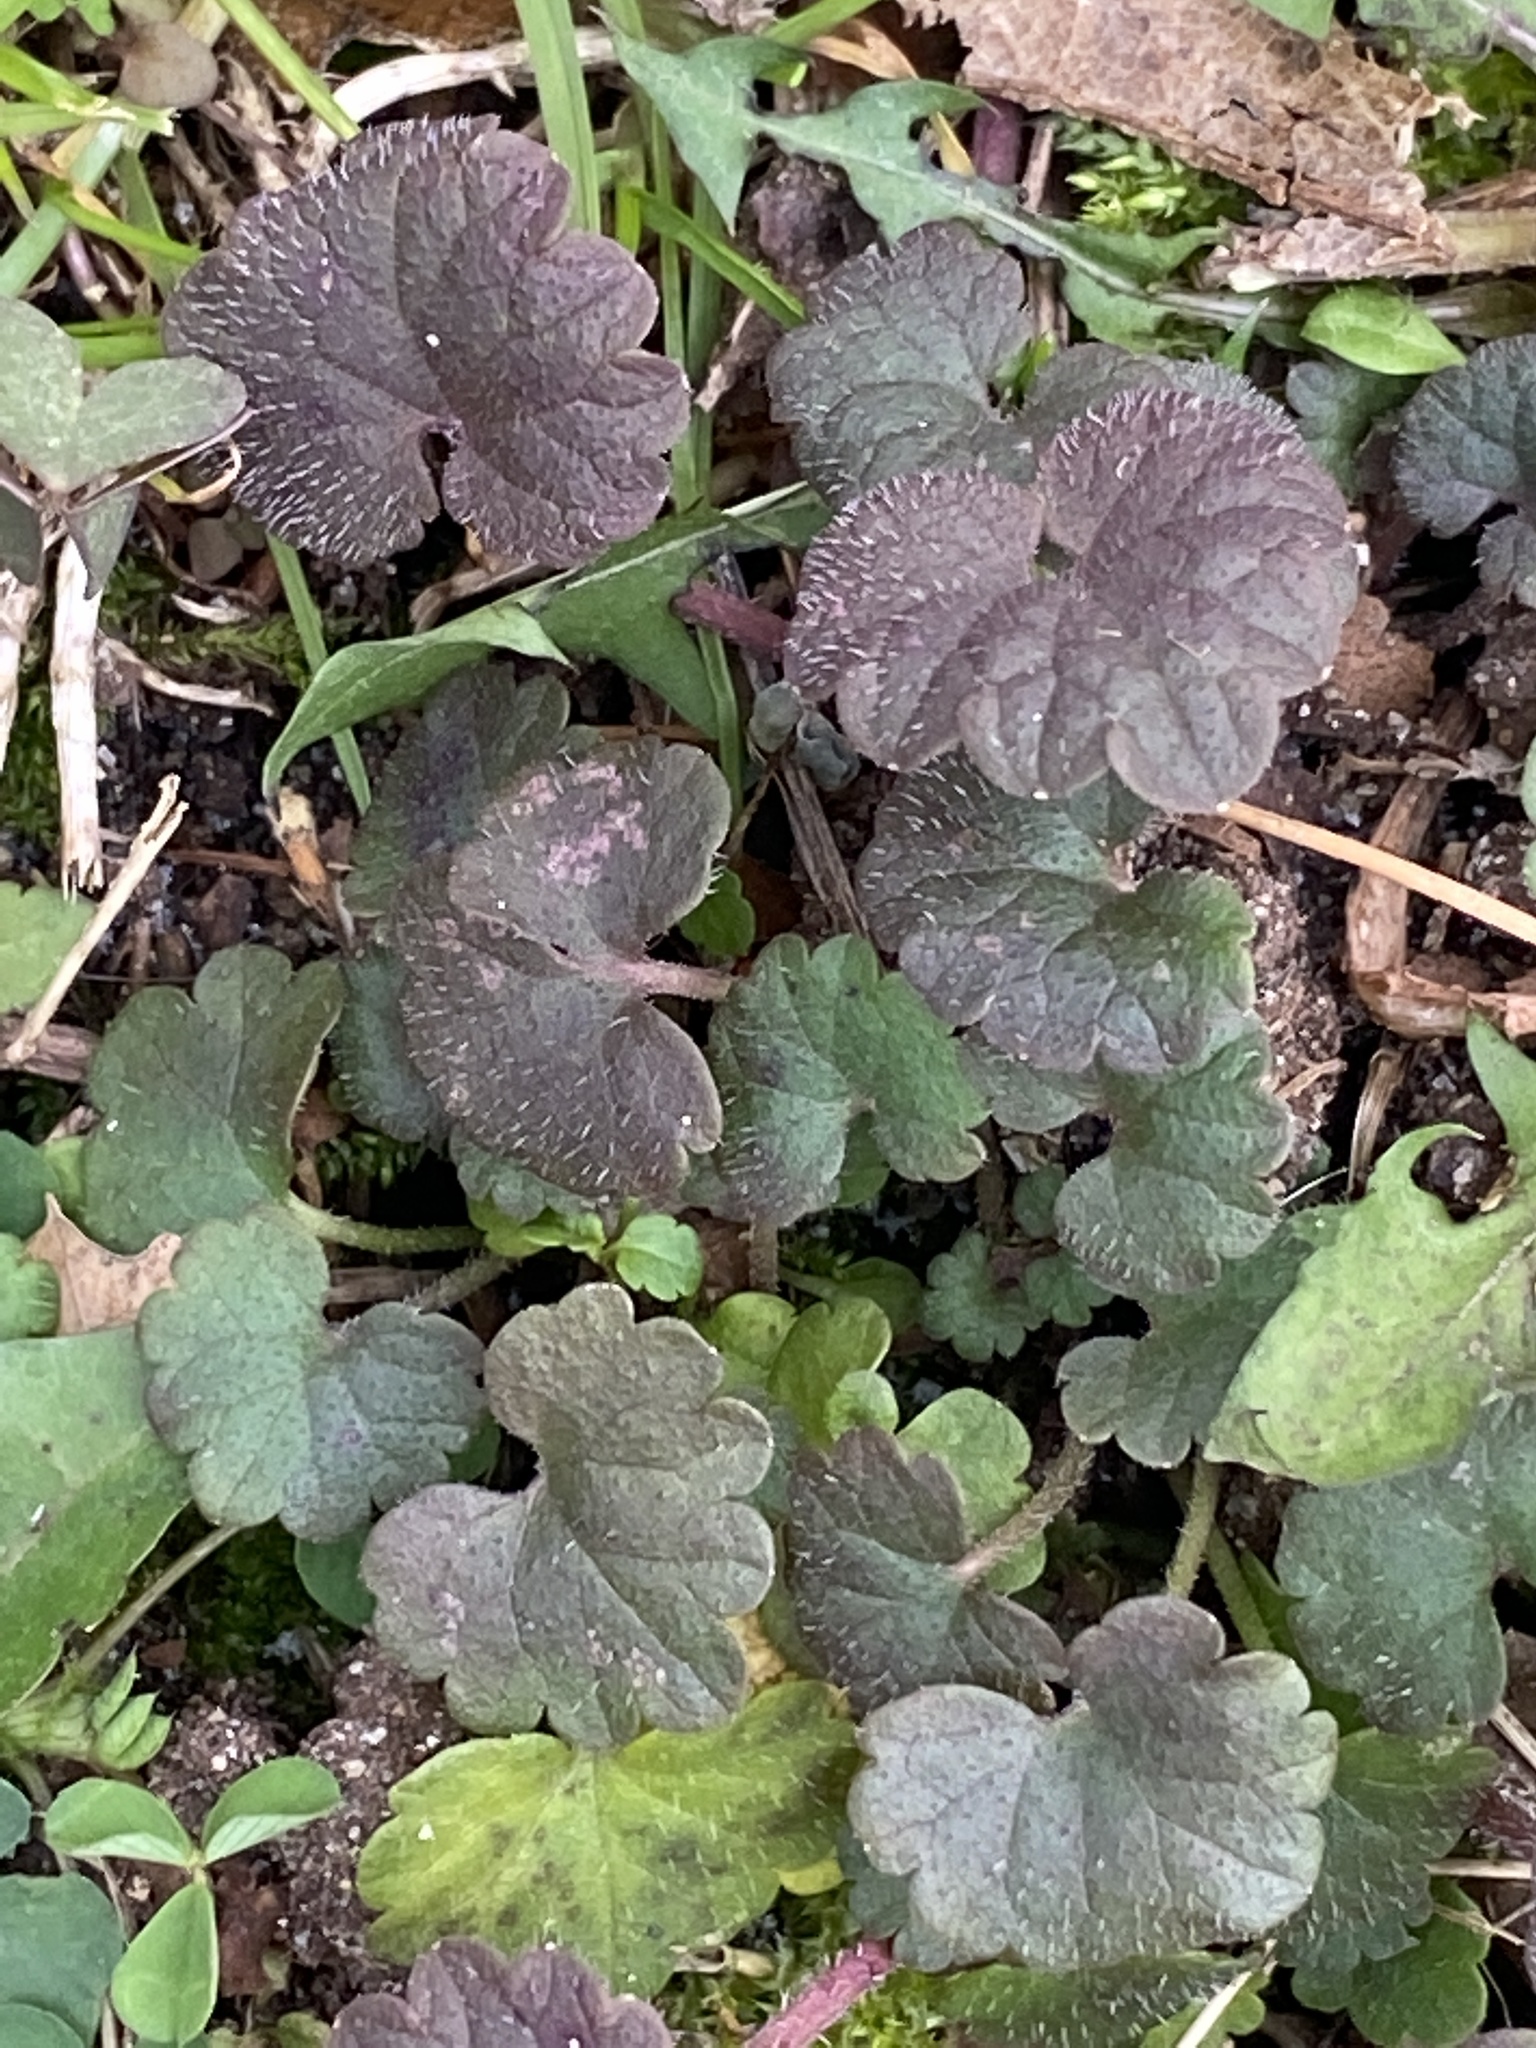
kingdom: Plantae
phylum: Tracheophyta
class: Magnoliopsida
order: Lamiales
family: Lamiaceae
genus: Glechoma
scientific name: Glechoma hederacea
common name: Ground ivy
